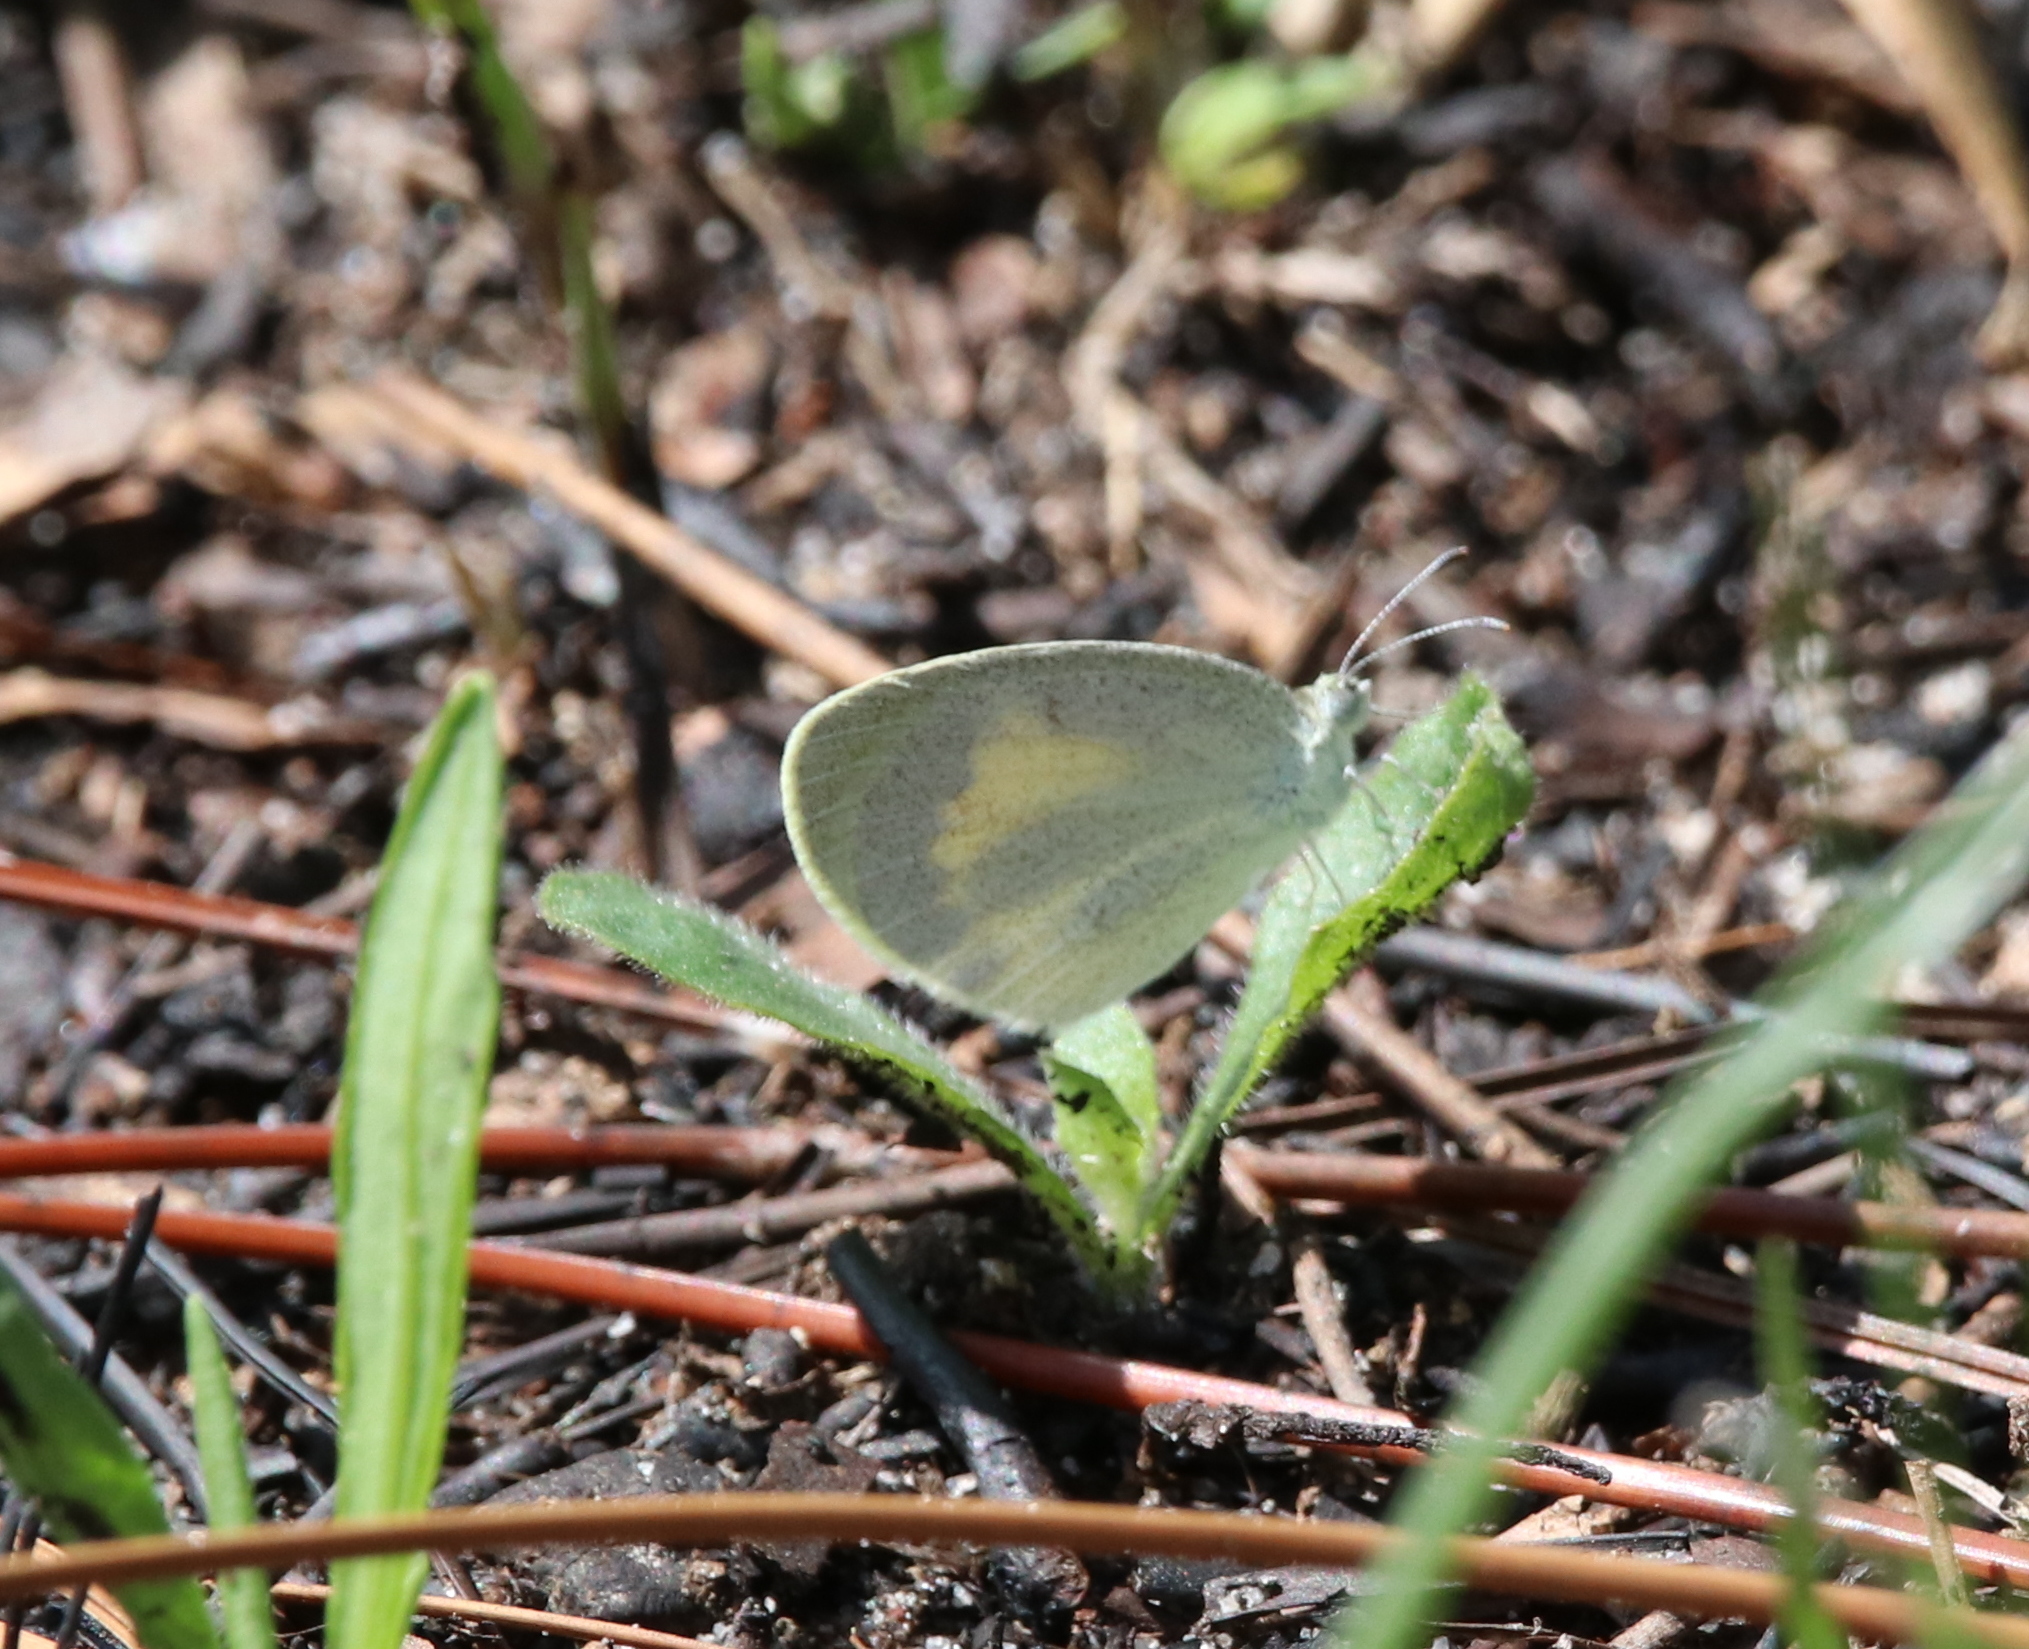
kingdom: Animalia
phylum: Arthropoda
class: Insecta
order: Lepidoptera
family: Pieridae
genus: Eurema
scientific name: Eurema daira
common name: Barred sulphur
